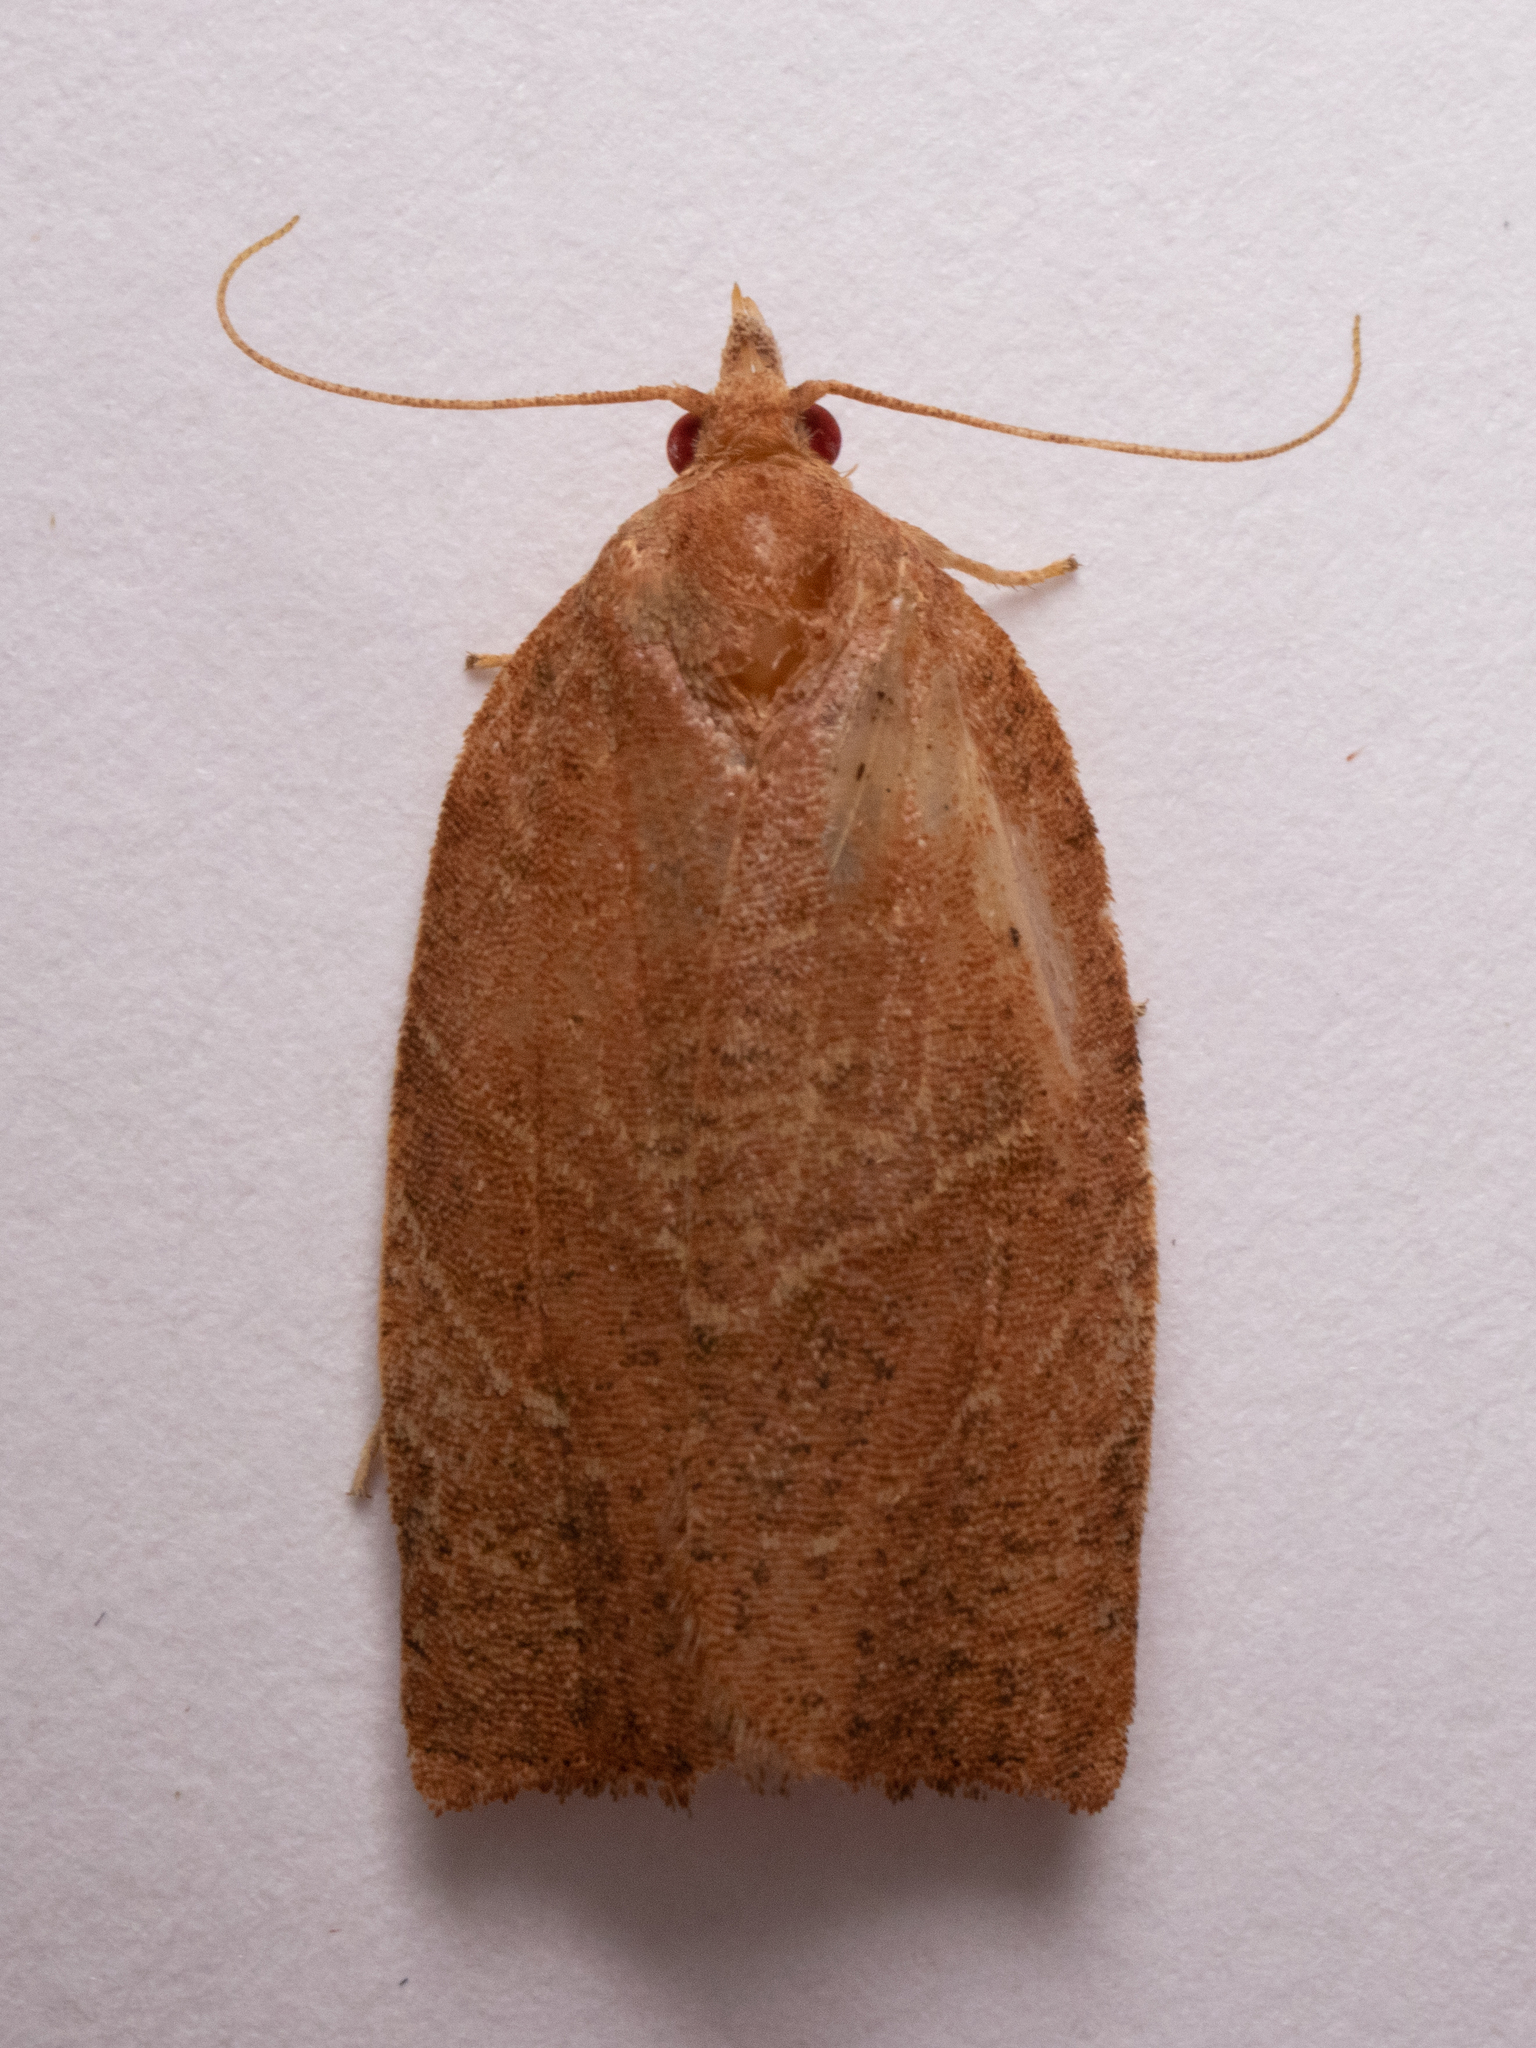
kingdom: Animalia
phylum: Arthropoda
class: Insecta
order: Lepidoptera
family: Tortricidae
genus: Pandemis
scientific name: Pandemis limitata
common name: Three-lined leafroller moth
